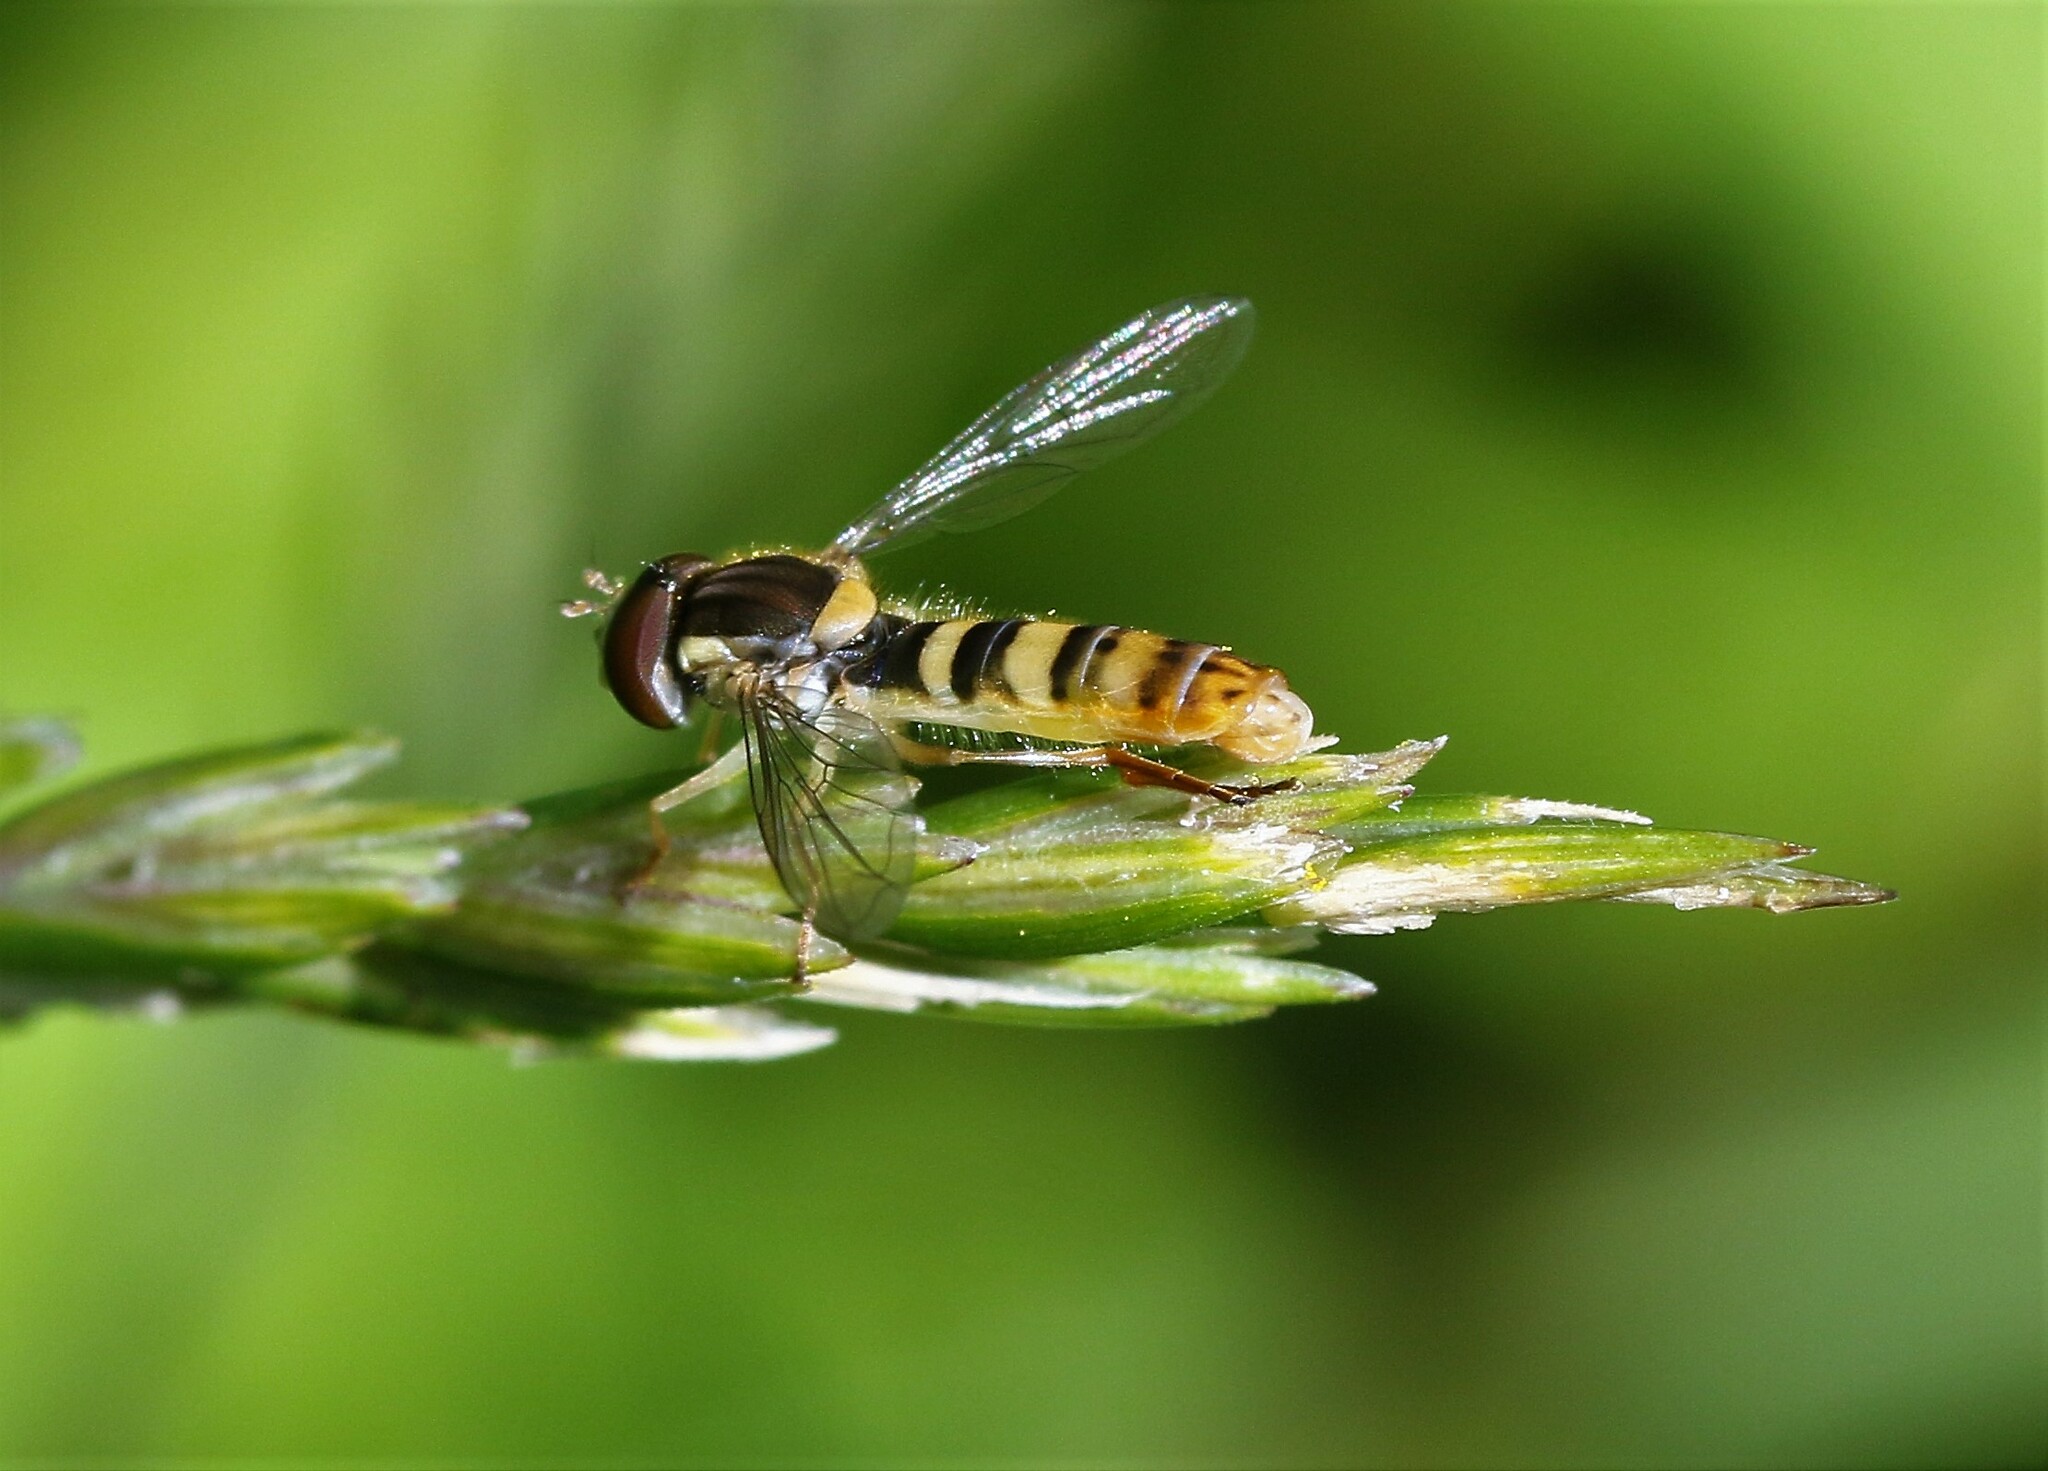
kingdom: Animalia
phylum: Arthropoda
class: Insecta
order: Diptera
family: Syrphidae
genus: Sphaerophoria
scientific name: Sphaerophoria philantha
